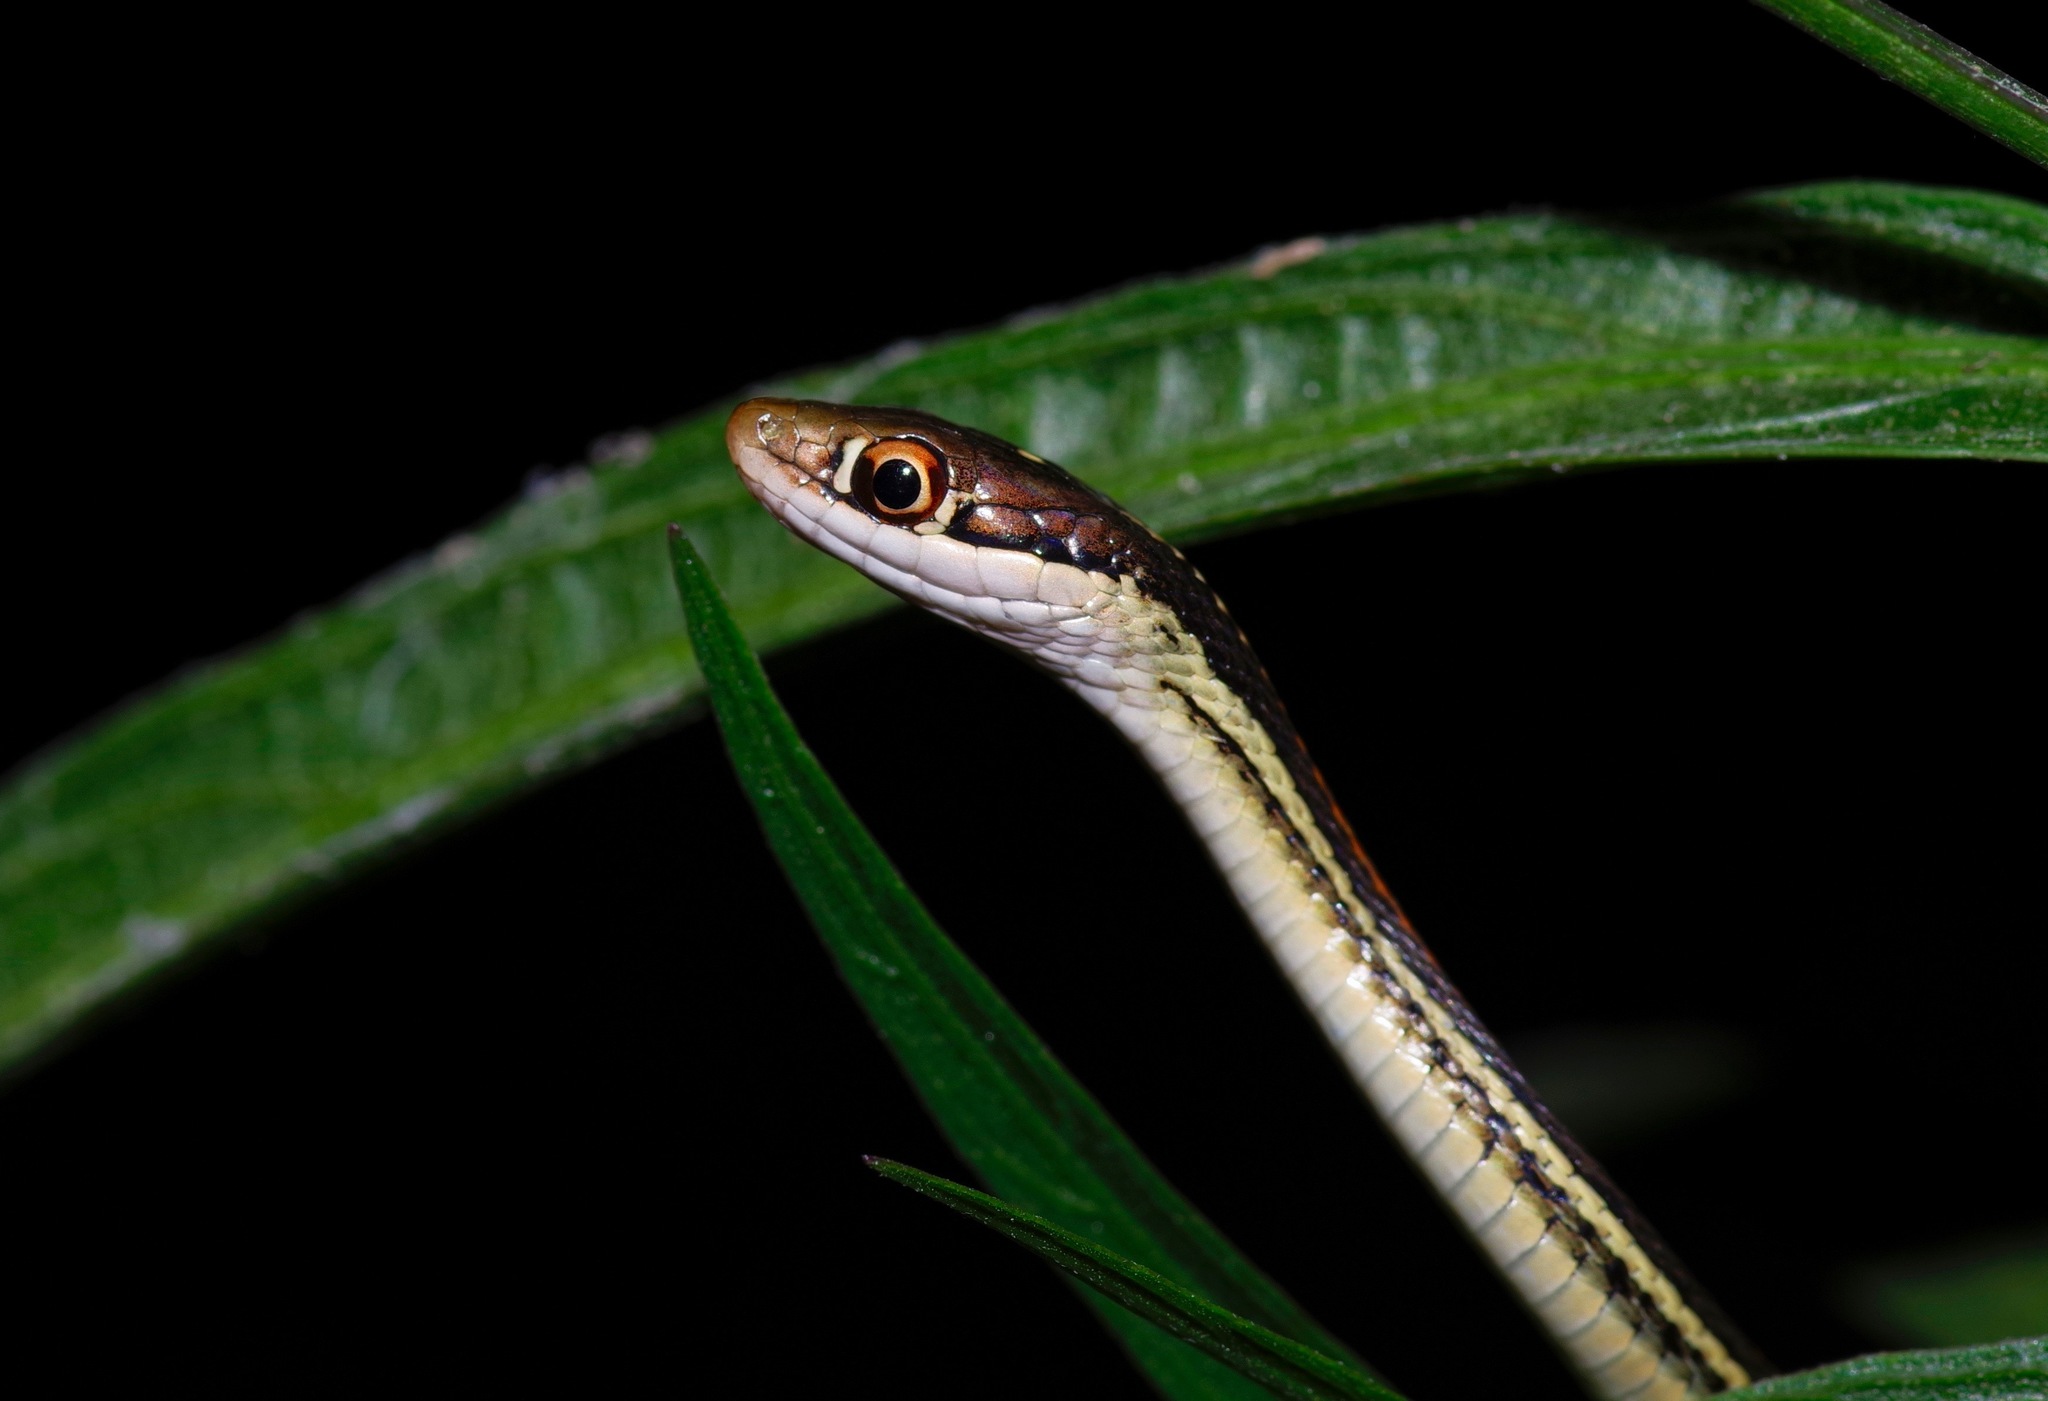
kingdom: Animalia
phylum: Chordata
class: Squamata
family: Colubridae
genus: Thamnophis
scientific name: Thamnophis proximus
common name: Western ribbon snake
